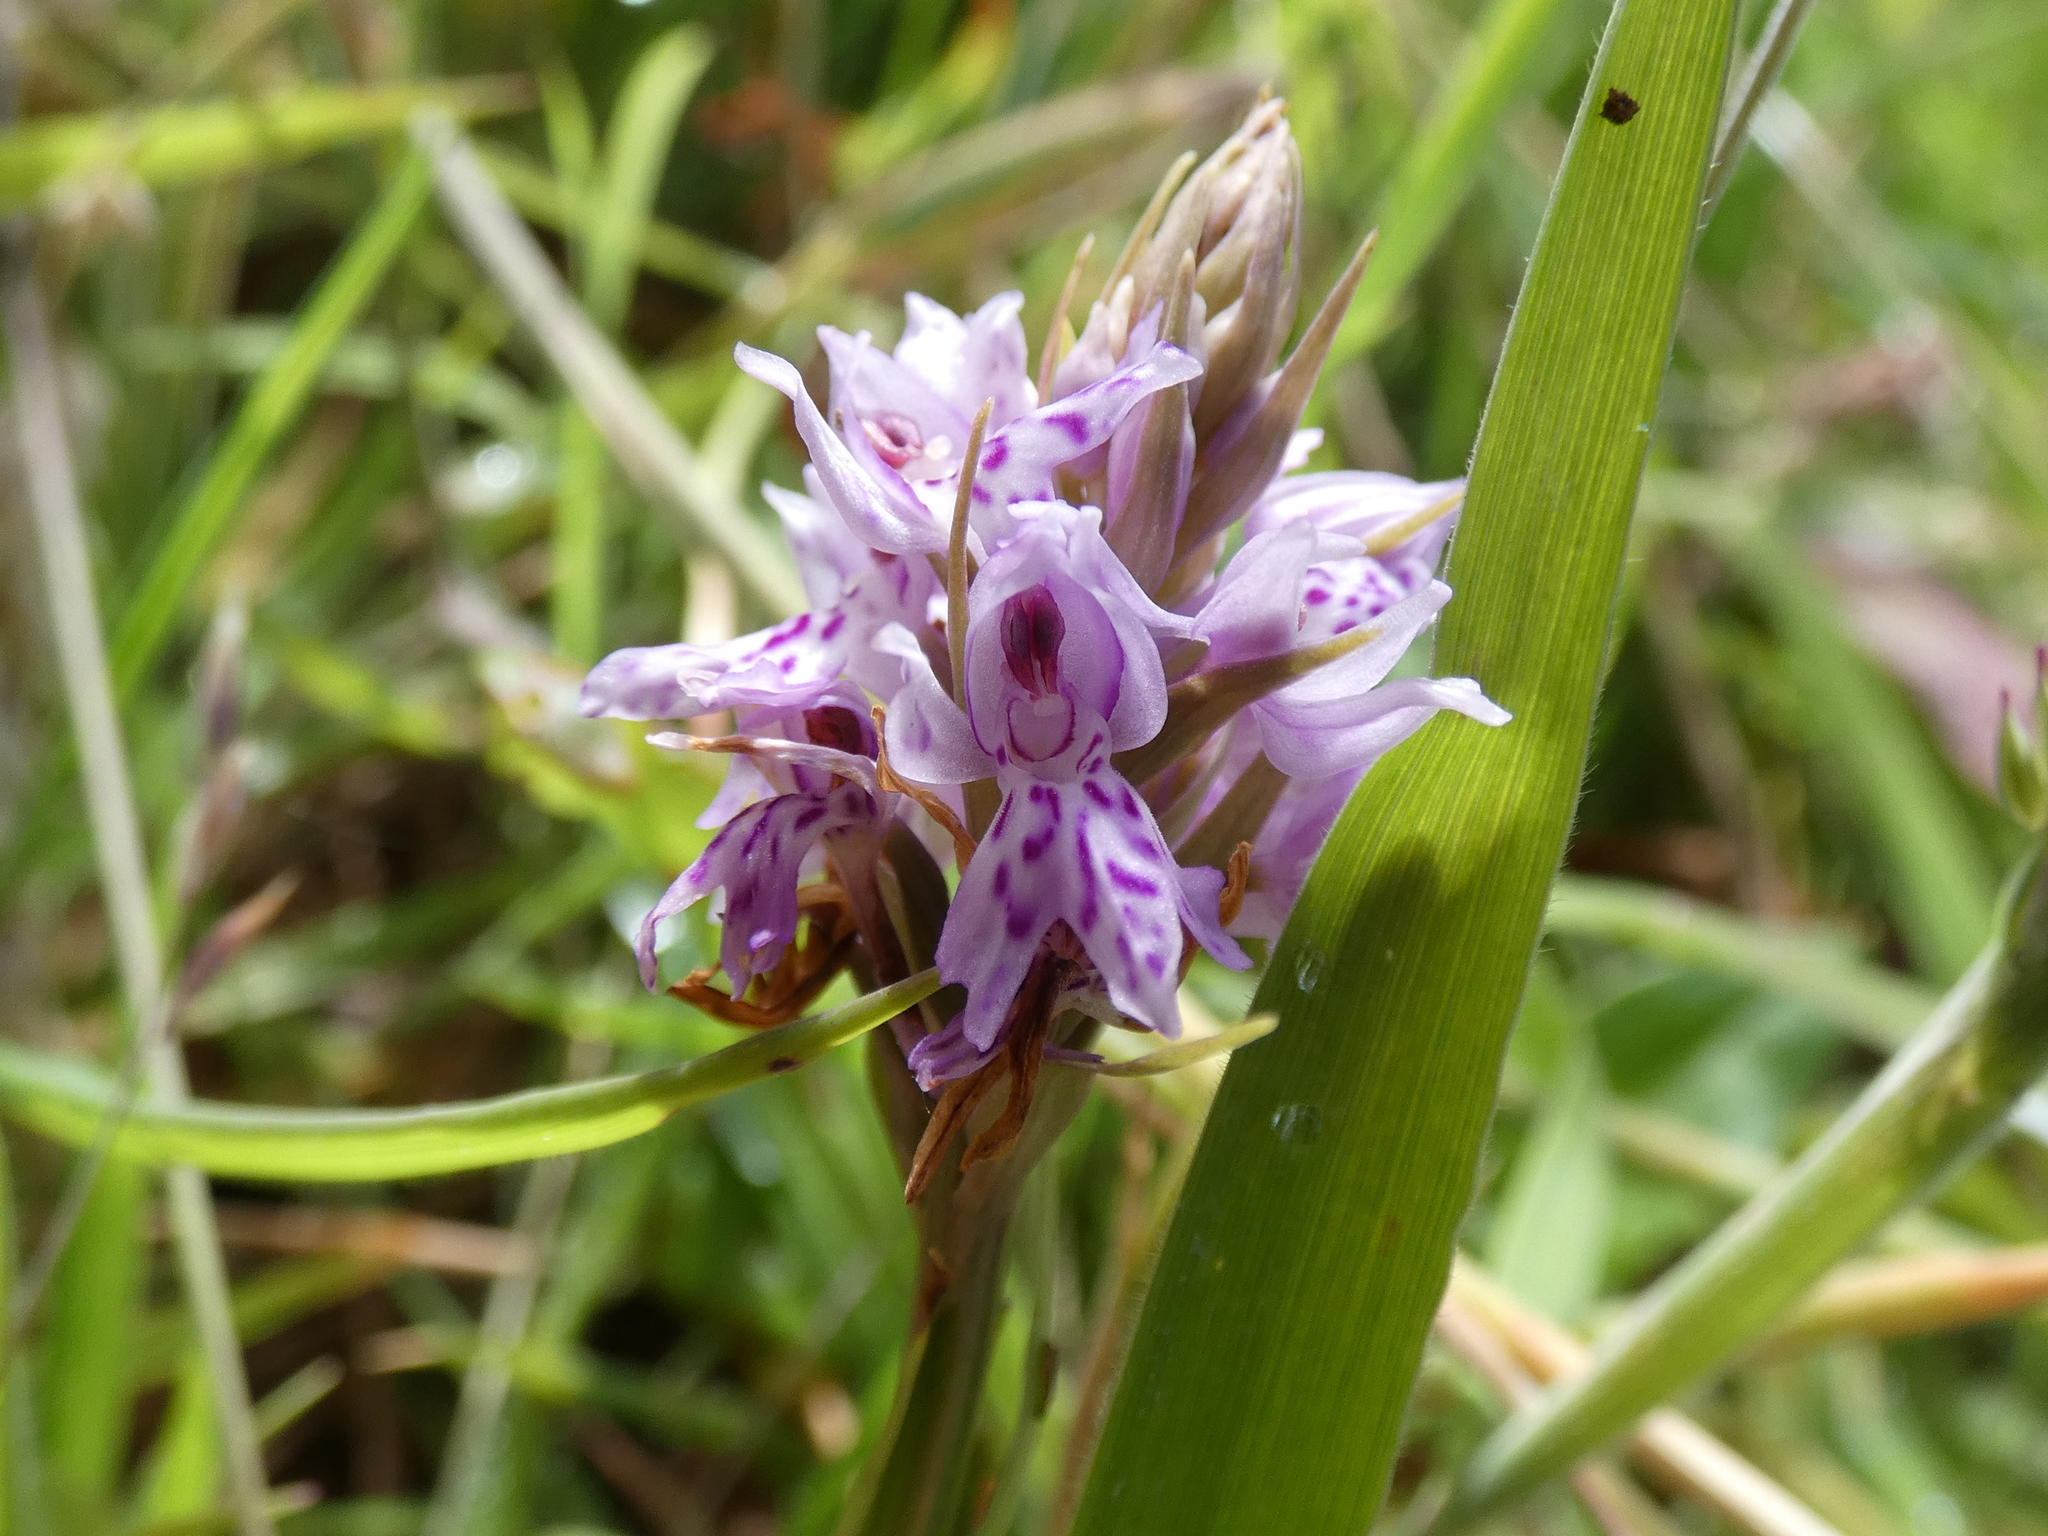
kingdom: Plantae
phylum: Tracheophyta
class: Liliopsida
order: Asparagales
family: Orchidaceae
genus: Dactylorhiza
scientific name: Dactylorhiza maculata
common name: Heath spotted-orchid
